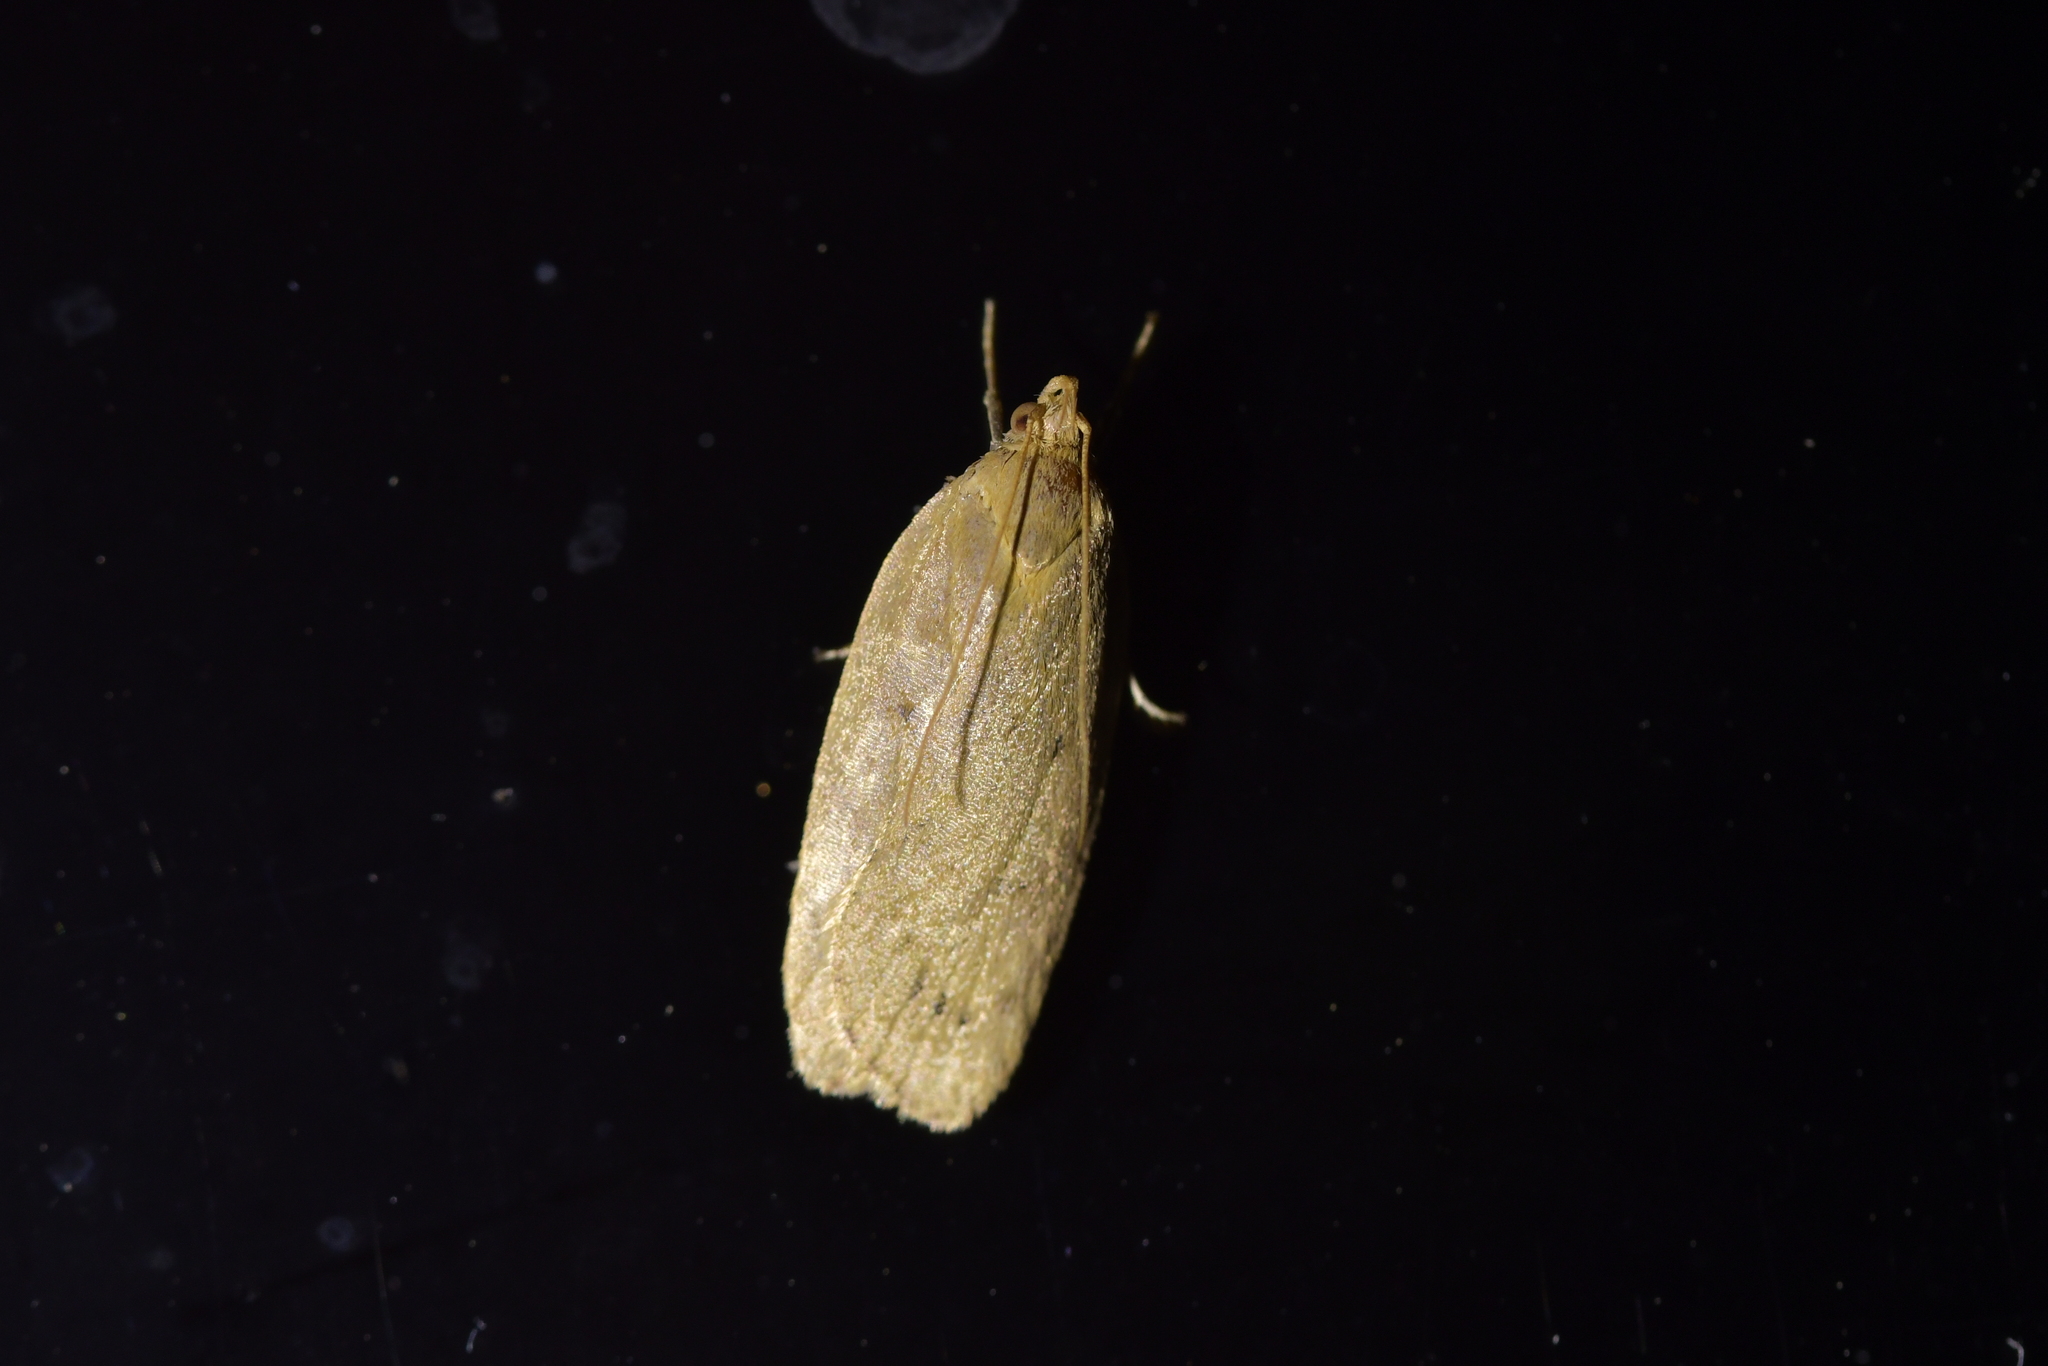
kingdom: Animalia
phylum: Arthropoda
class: Insecta
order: Lepidoptera
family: Depressariidae
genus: Phaeosaces
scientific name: Phaeosaces coarctatella
